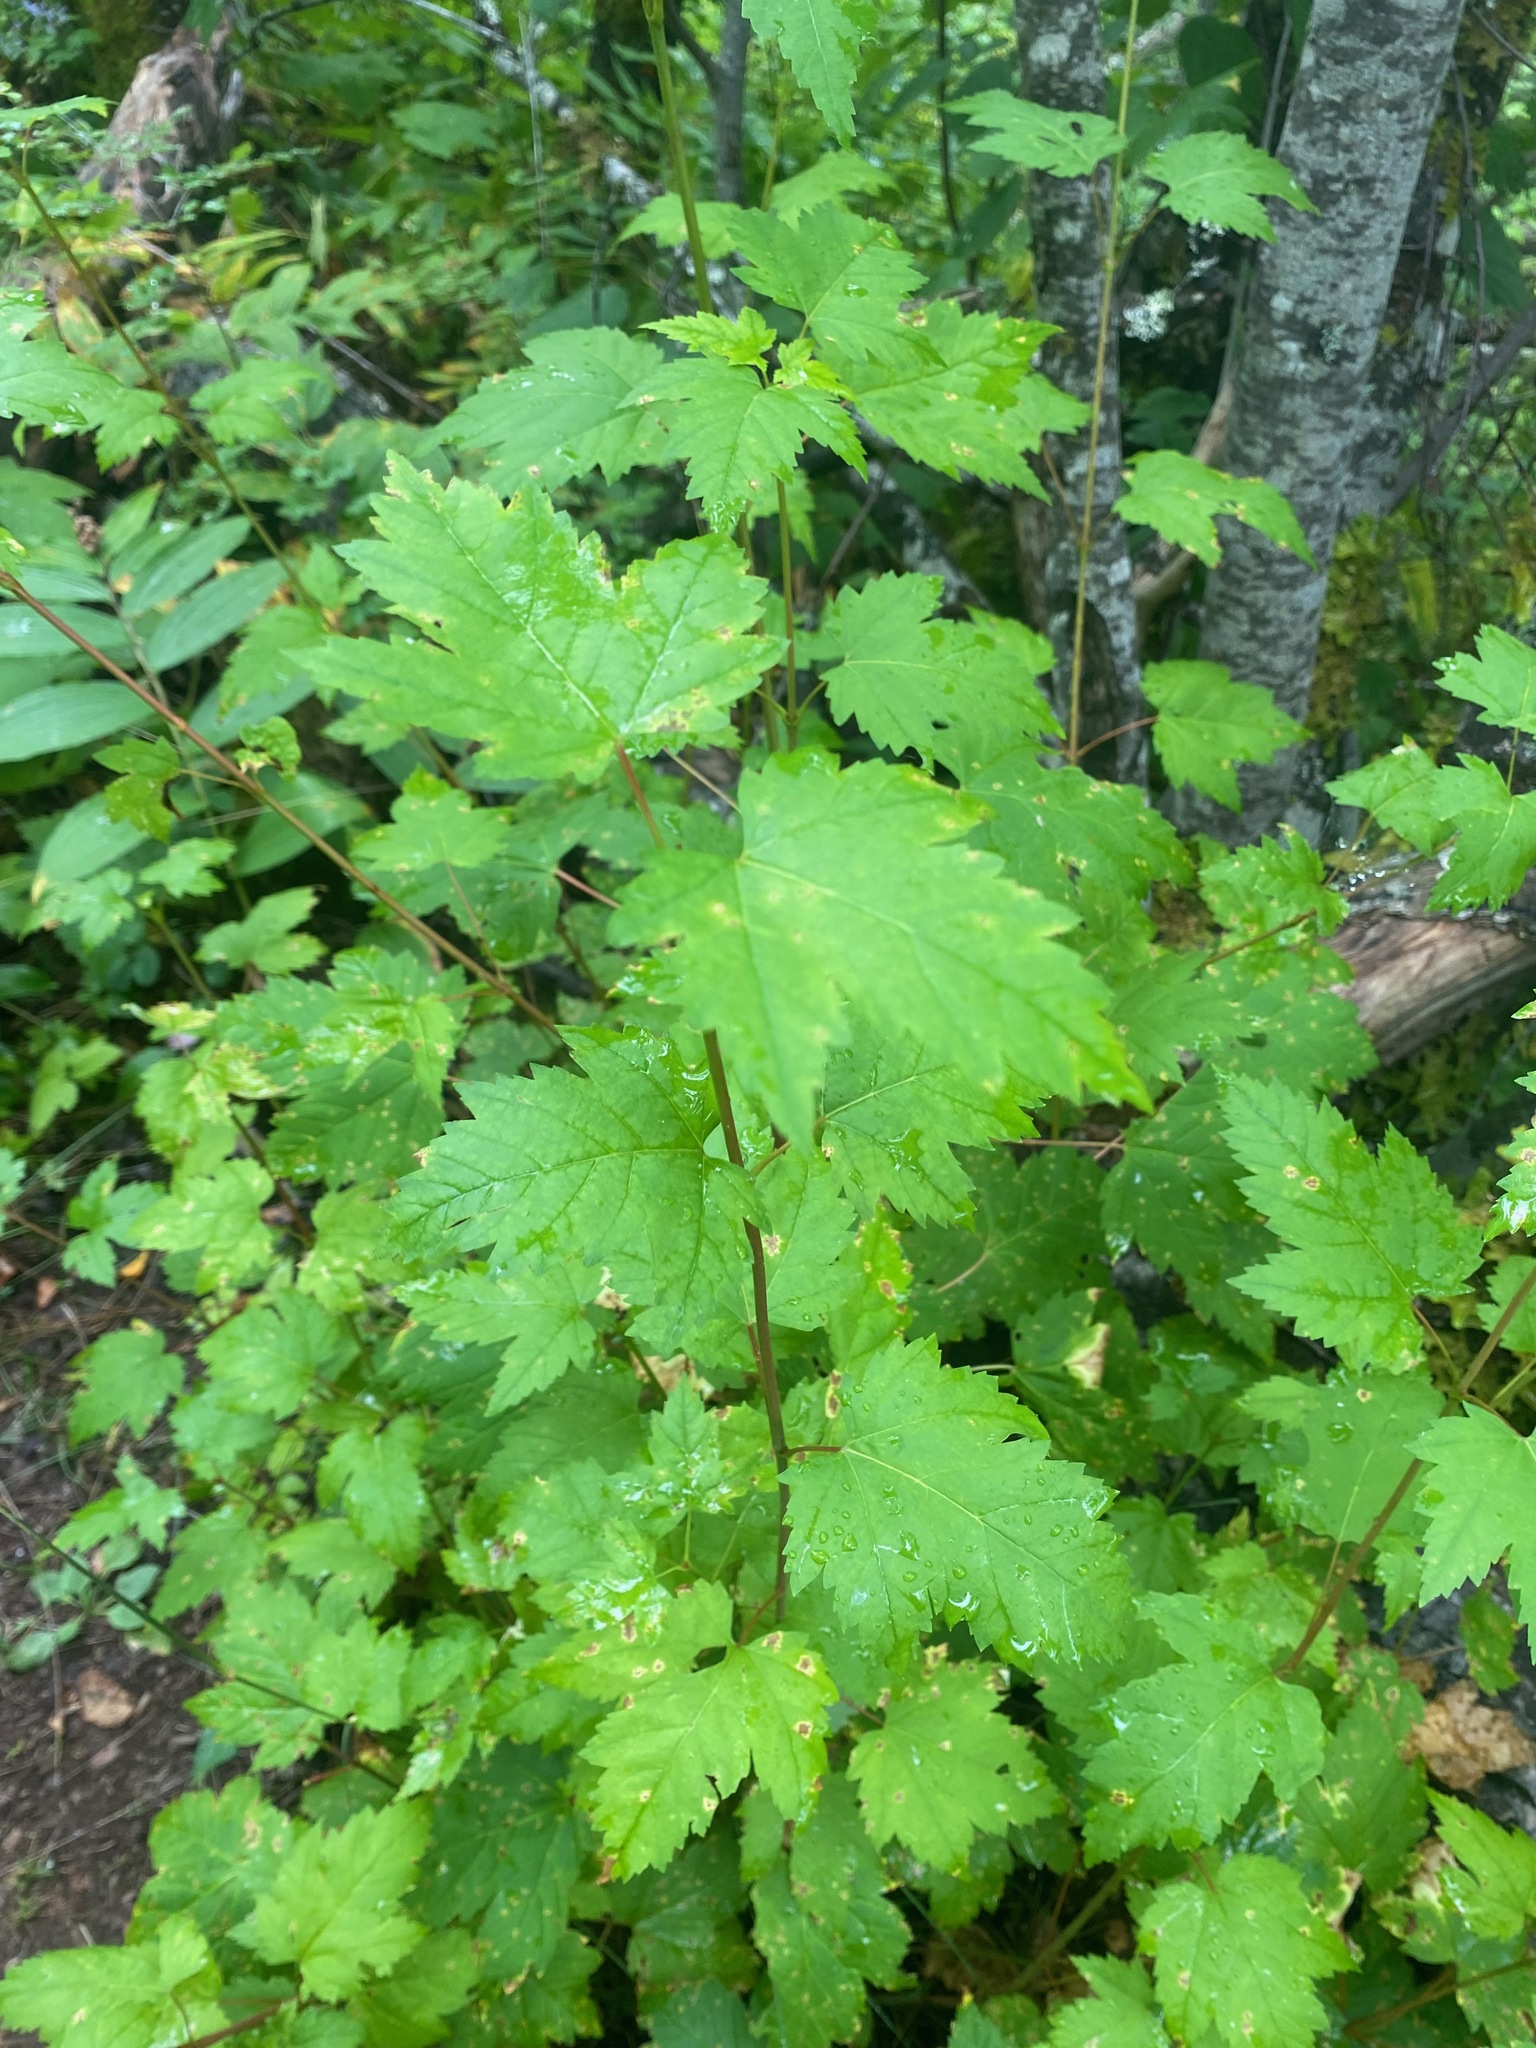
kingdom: Plantae
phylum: Tracheophyta
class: Magnoliopsida
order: Sapindales
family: Sapindaceae
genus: Acer
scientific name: Acer glabrum
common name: Rocky mountain maple
